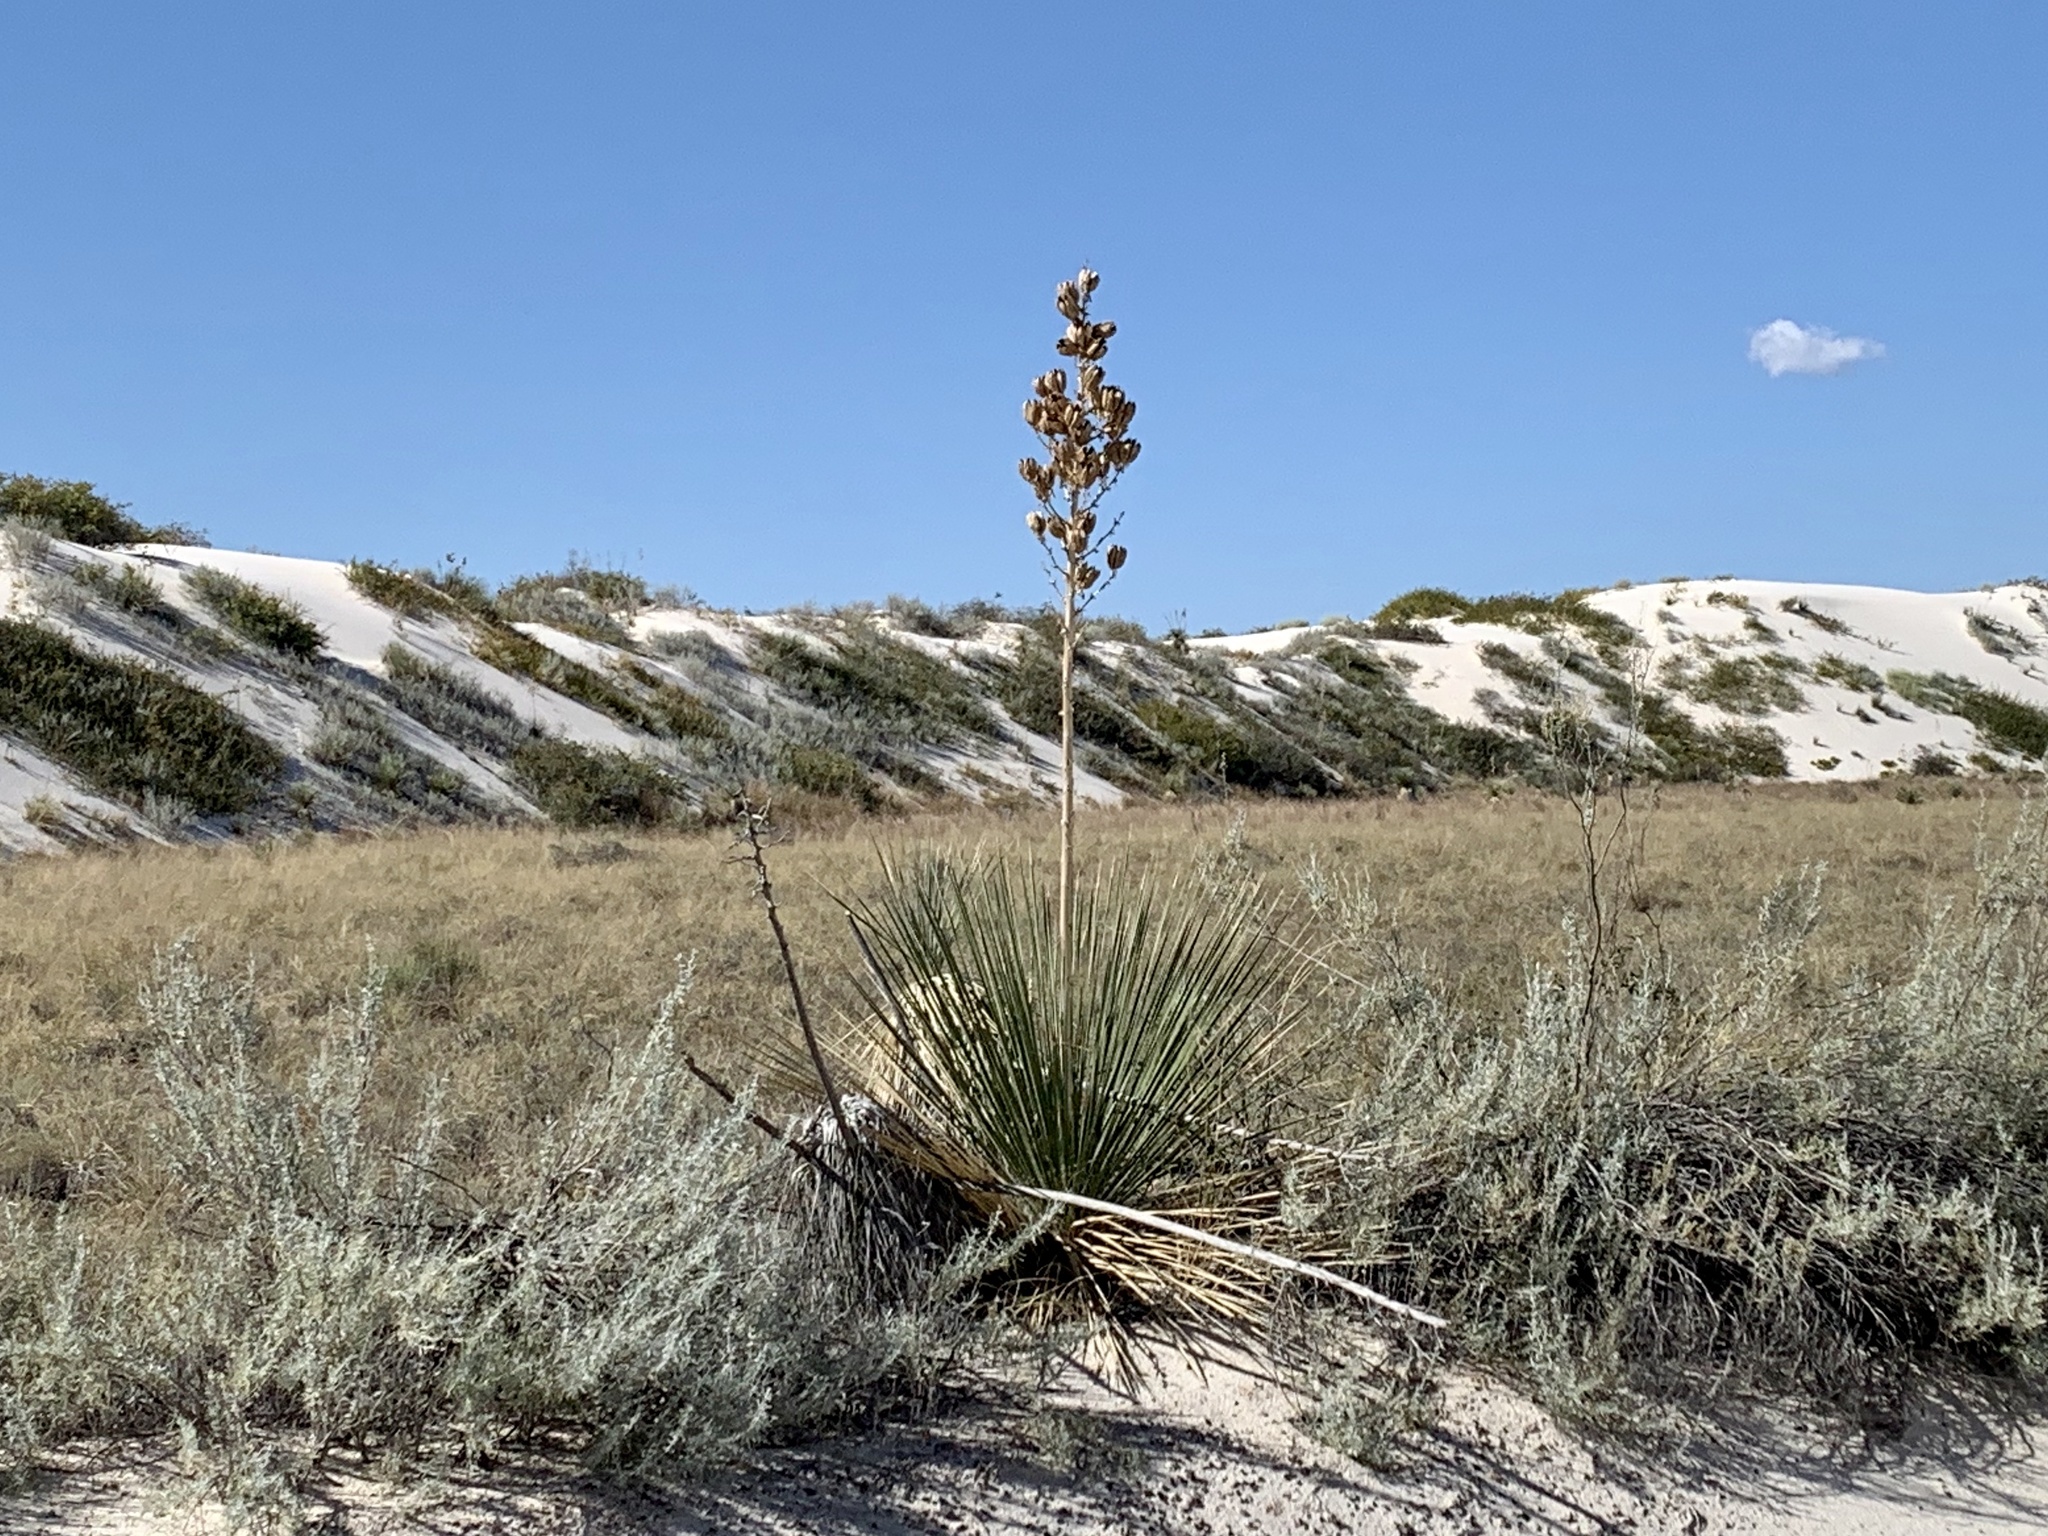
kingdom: Plantae
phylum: Tracheophyta
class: Liliopsida
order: Asparagales
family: Asparagaceae
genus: Yucca
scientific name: Yucca elata
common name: Palmella
